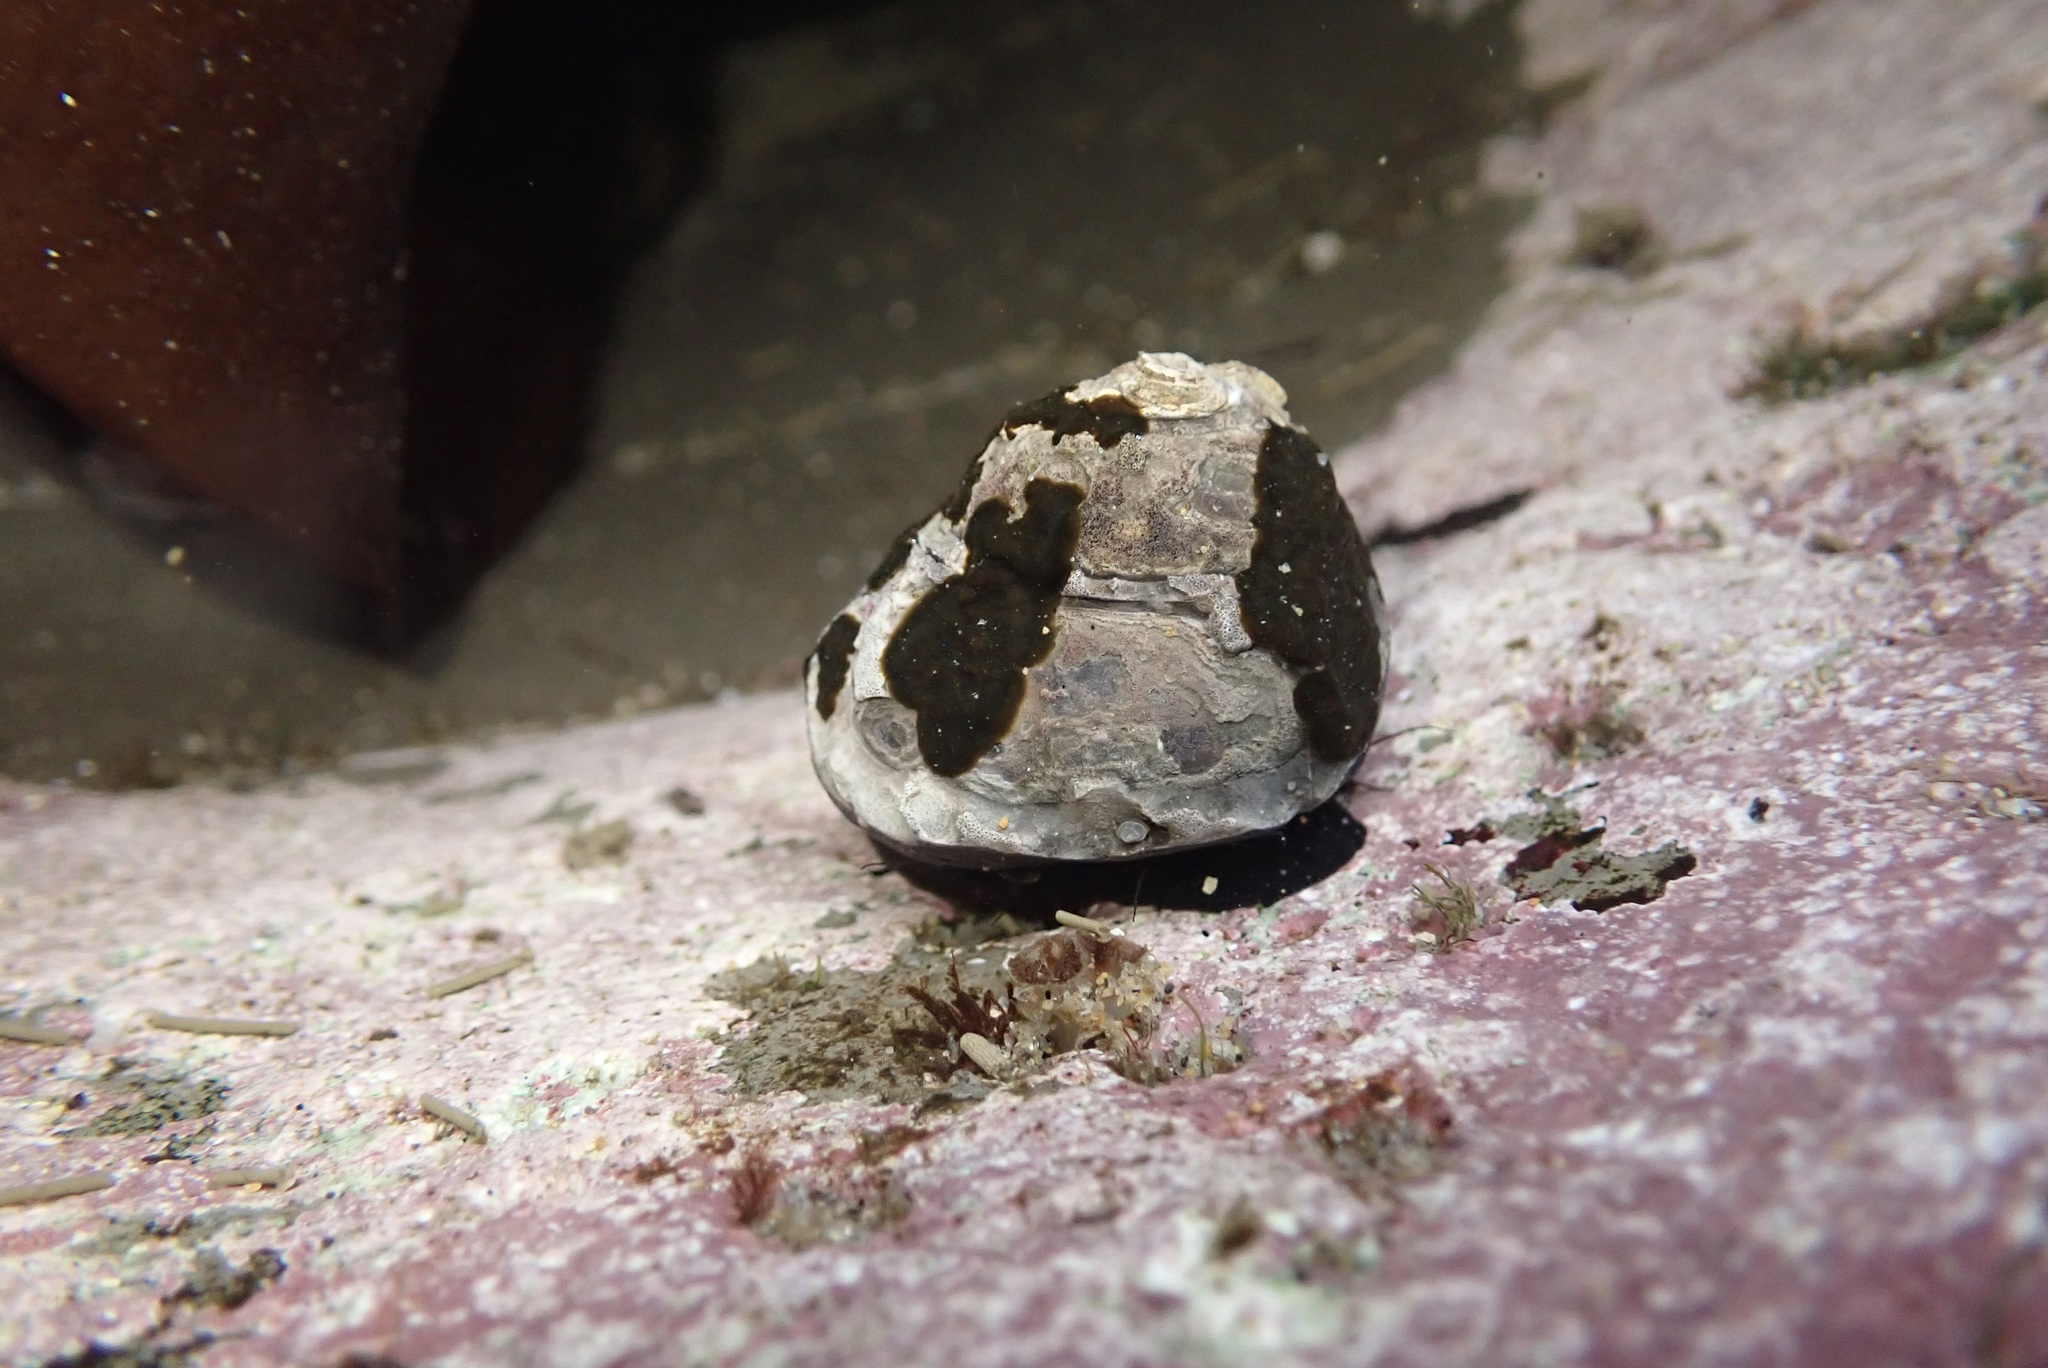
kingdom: Animalia
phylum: Mollusca
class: Gastropoda
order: Trochida
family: Tegulidae
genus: Tegula
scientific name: Tegula funebralis
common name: Black tegula
